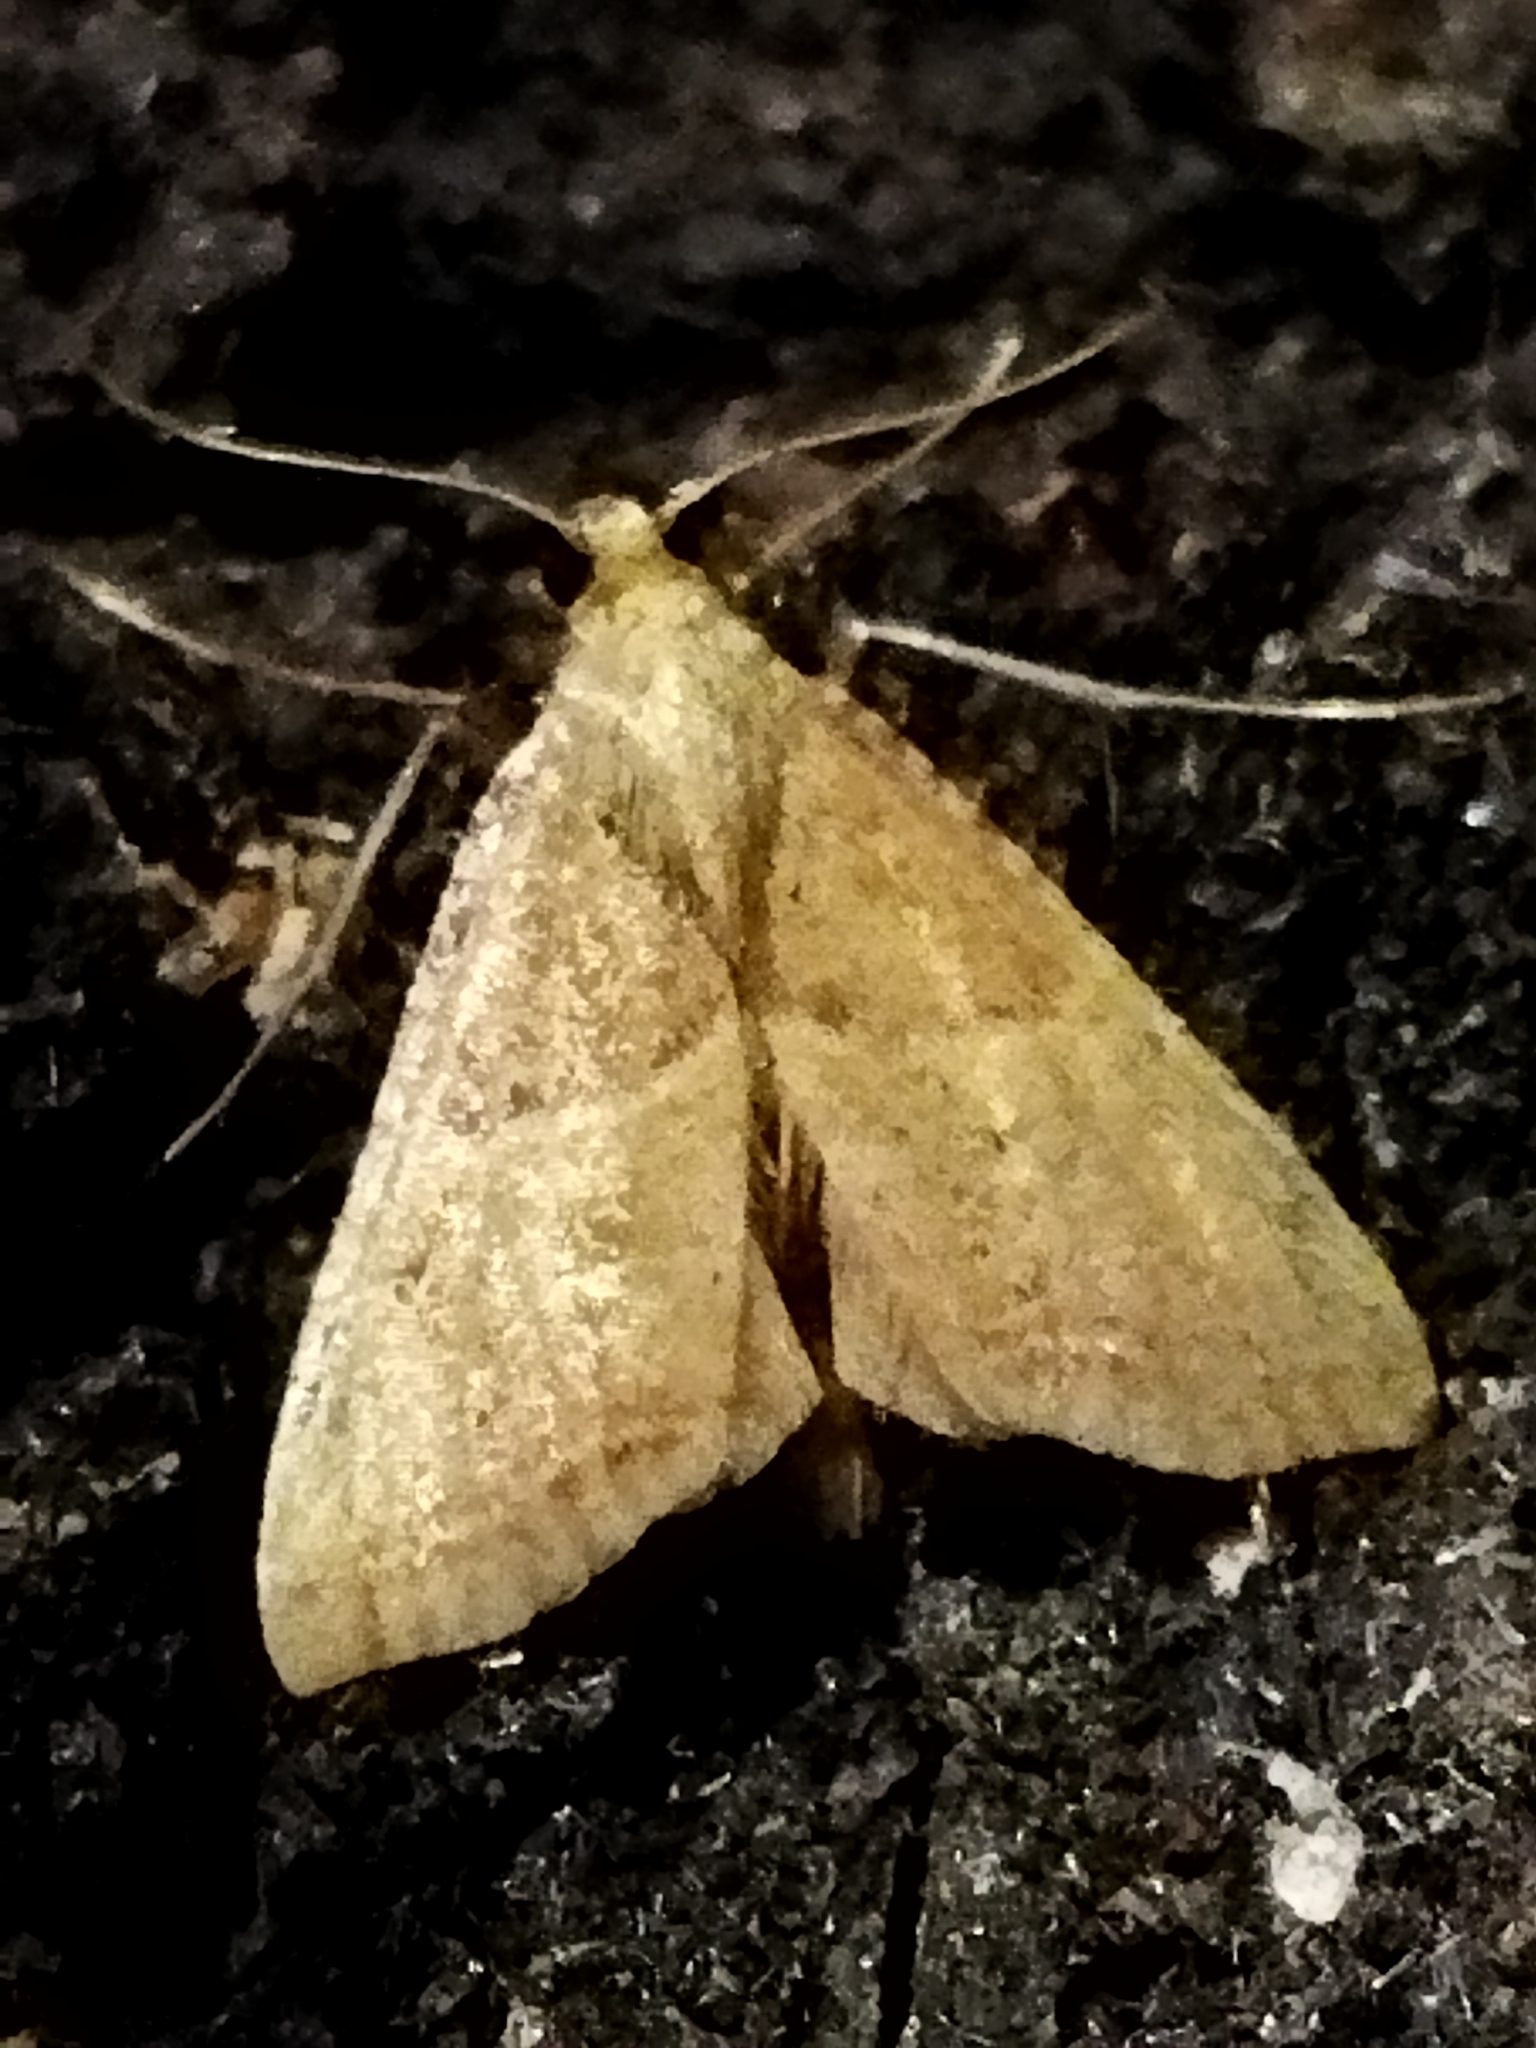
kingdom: Animalia
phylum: Arthropoda
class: Insecta
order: Lepidoptera
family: Pyralidae
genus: Endotricha
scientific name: Endotricha flammealis
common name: Rosy tabby
